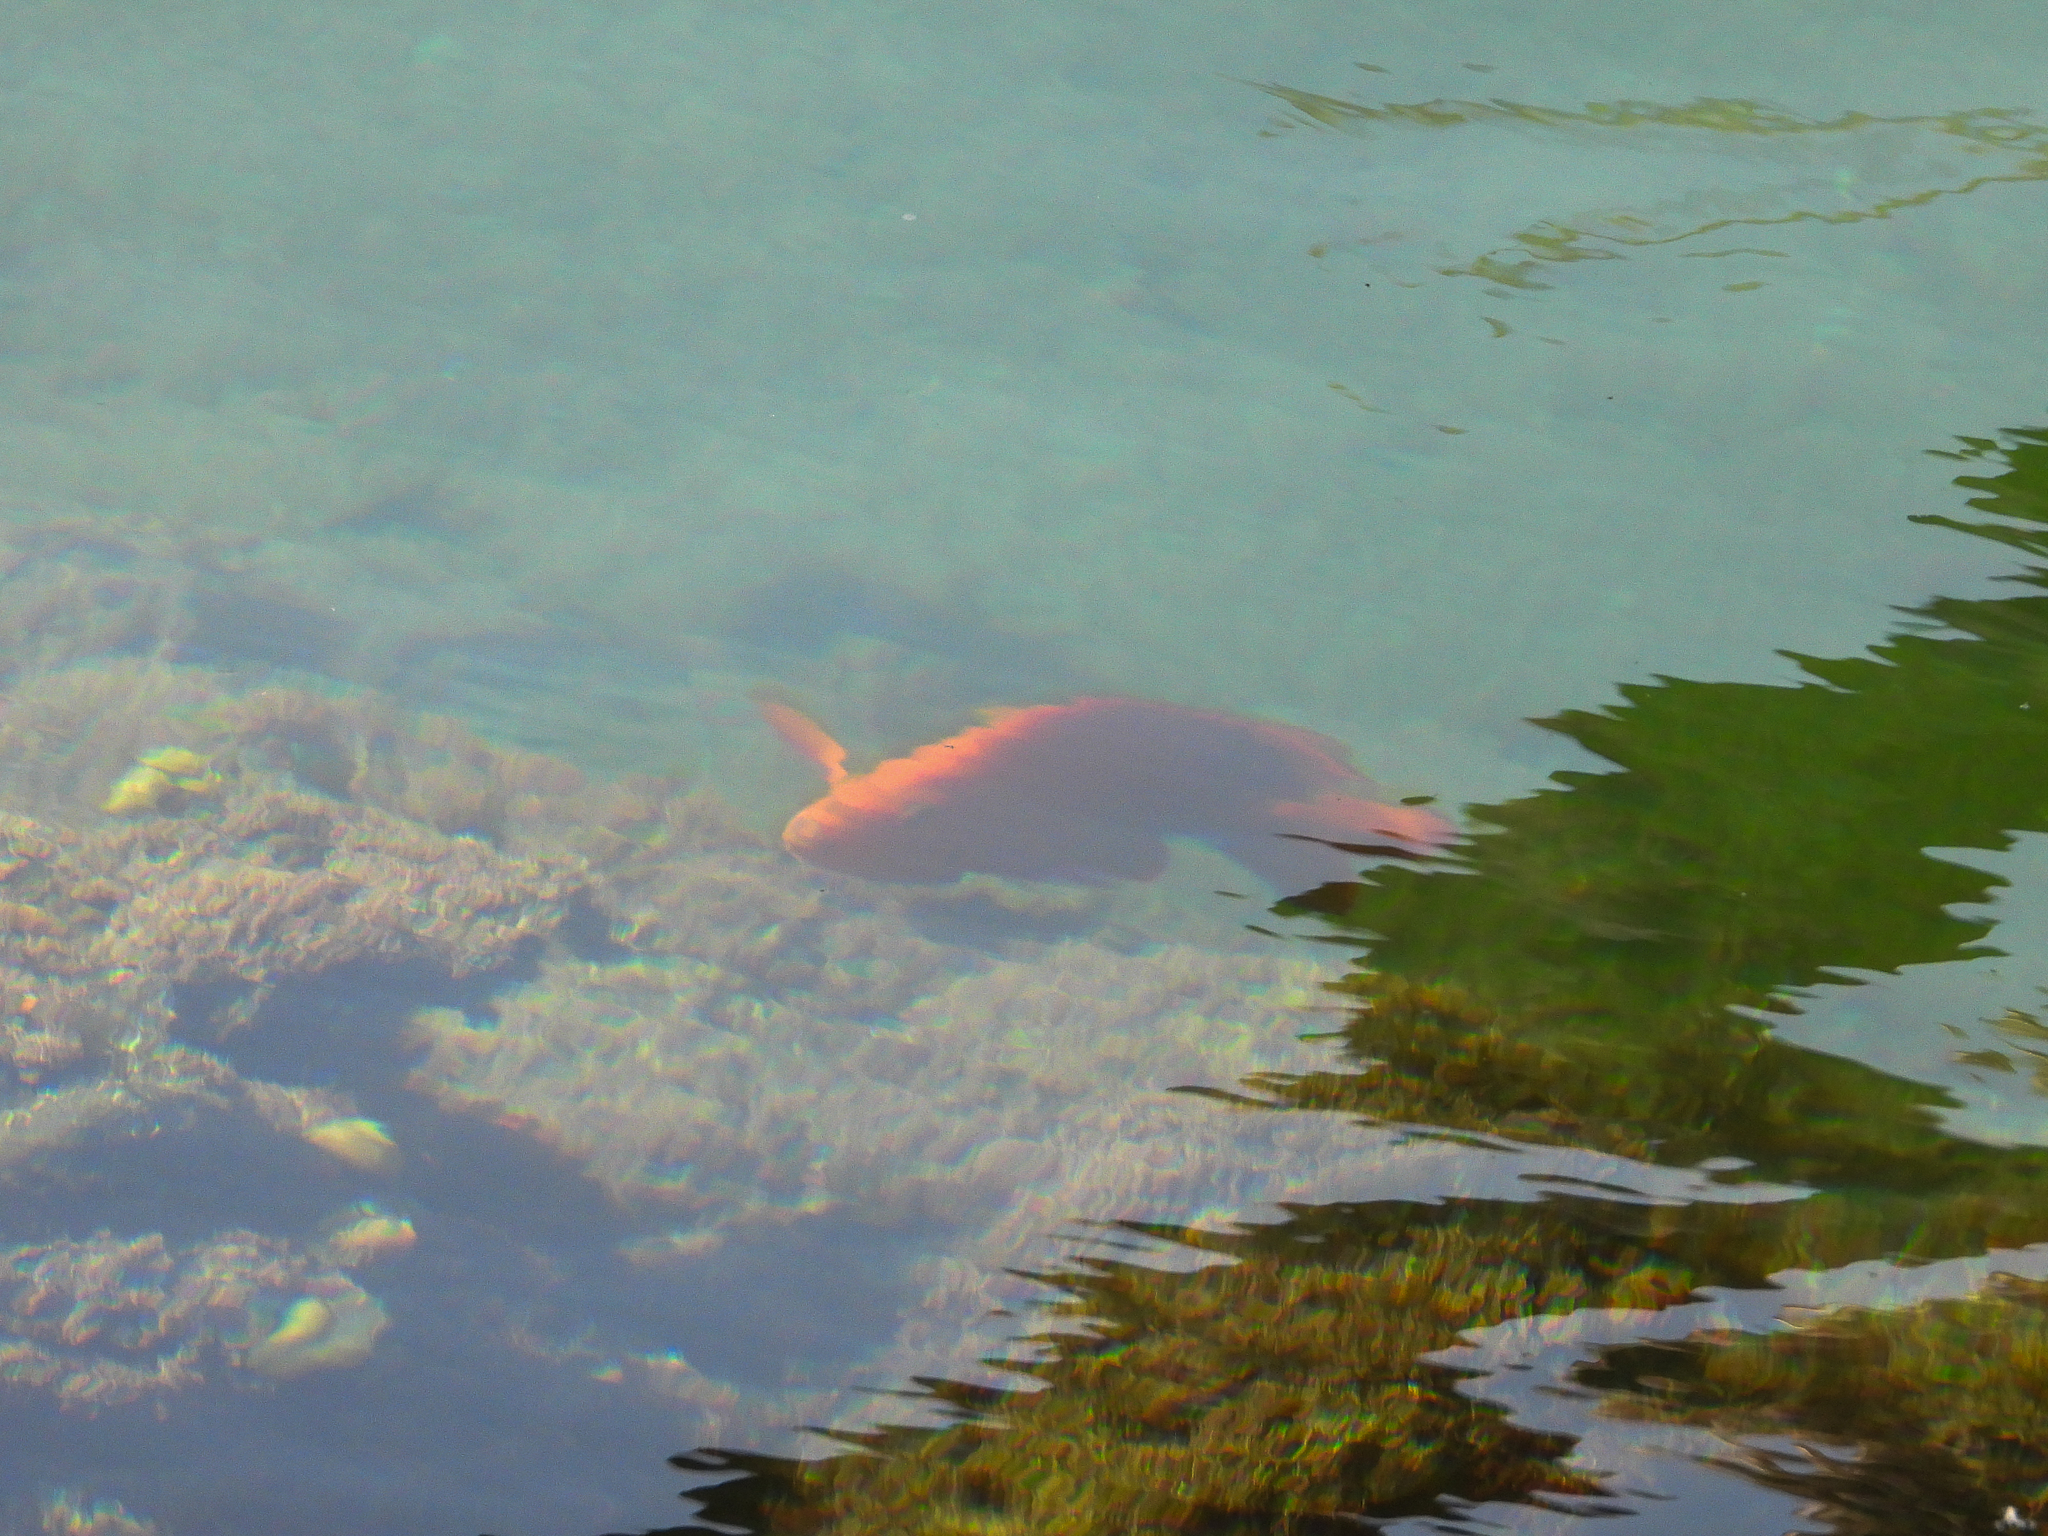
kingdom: Animalia
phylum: Chordata
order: Perciformes
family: Pomacentridae
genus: Hypsypops
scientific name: Hypsypops rubicundus
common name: Garibaldi
